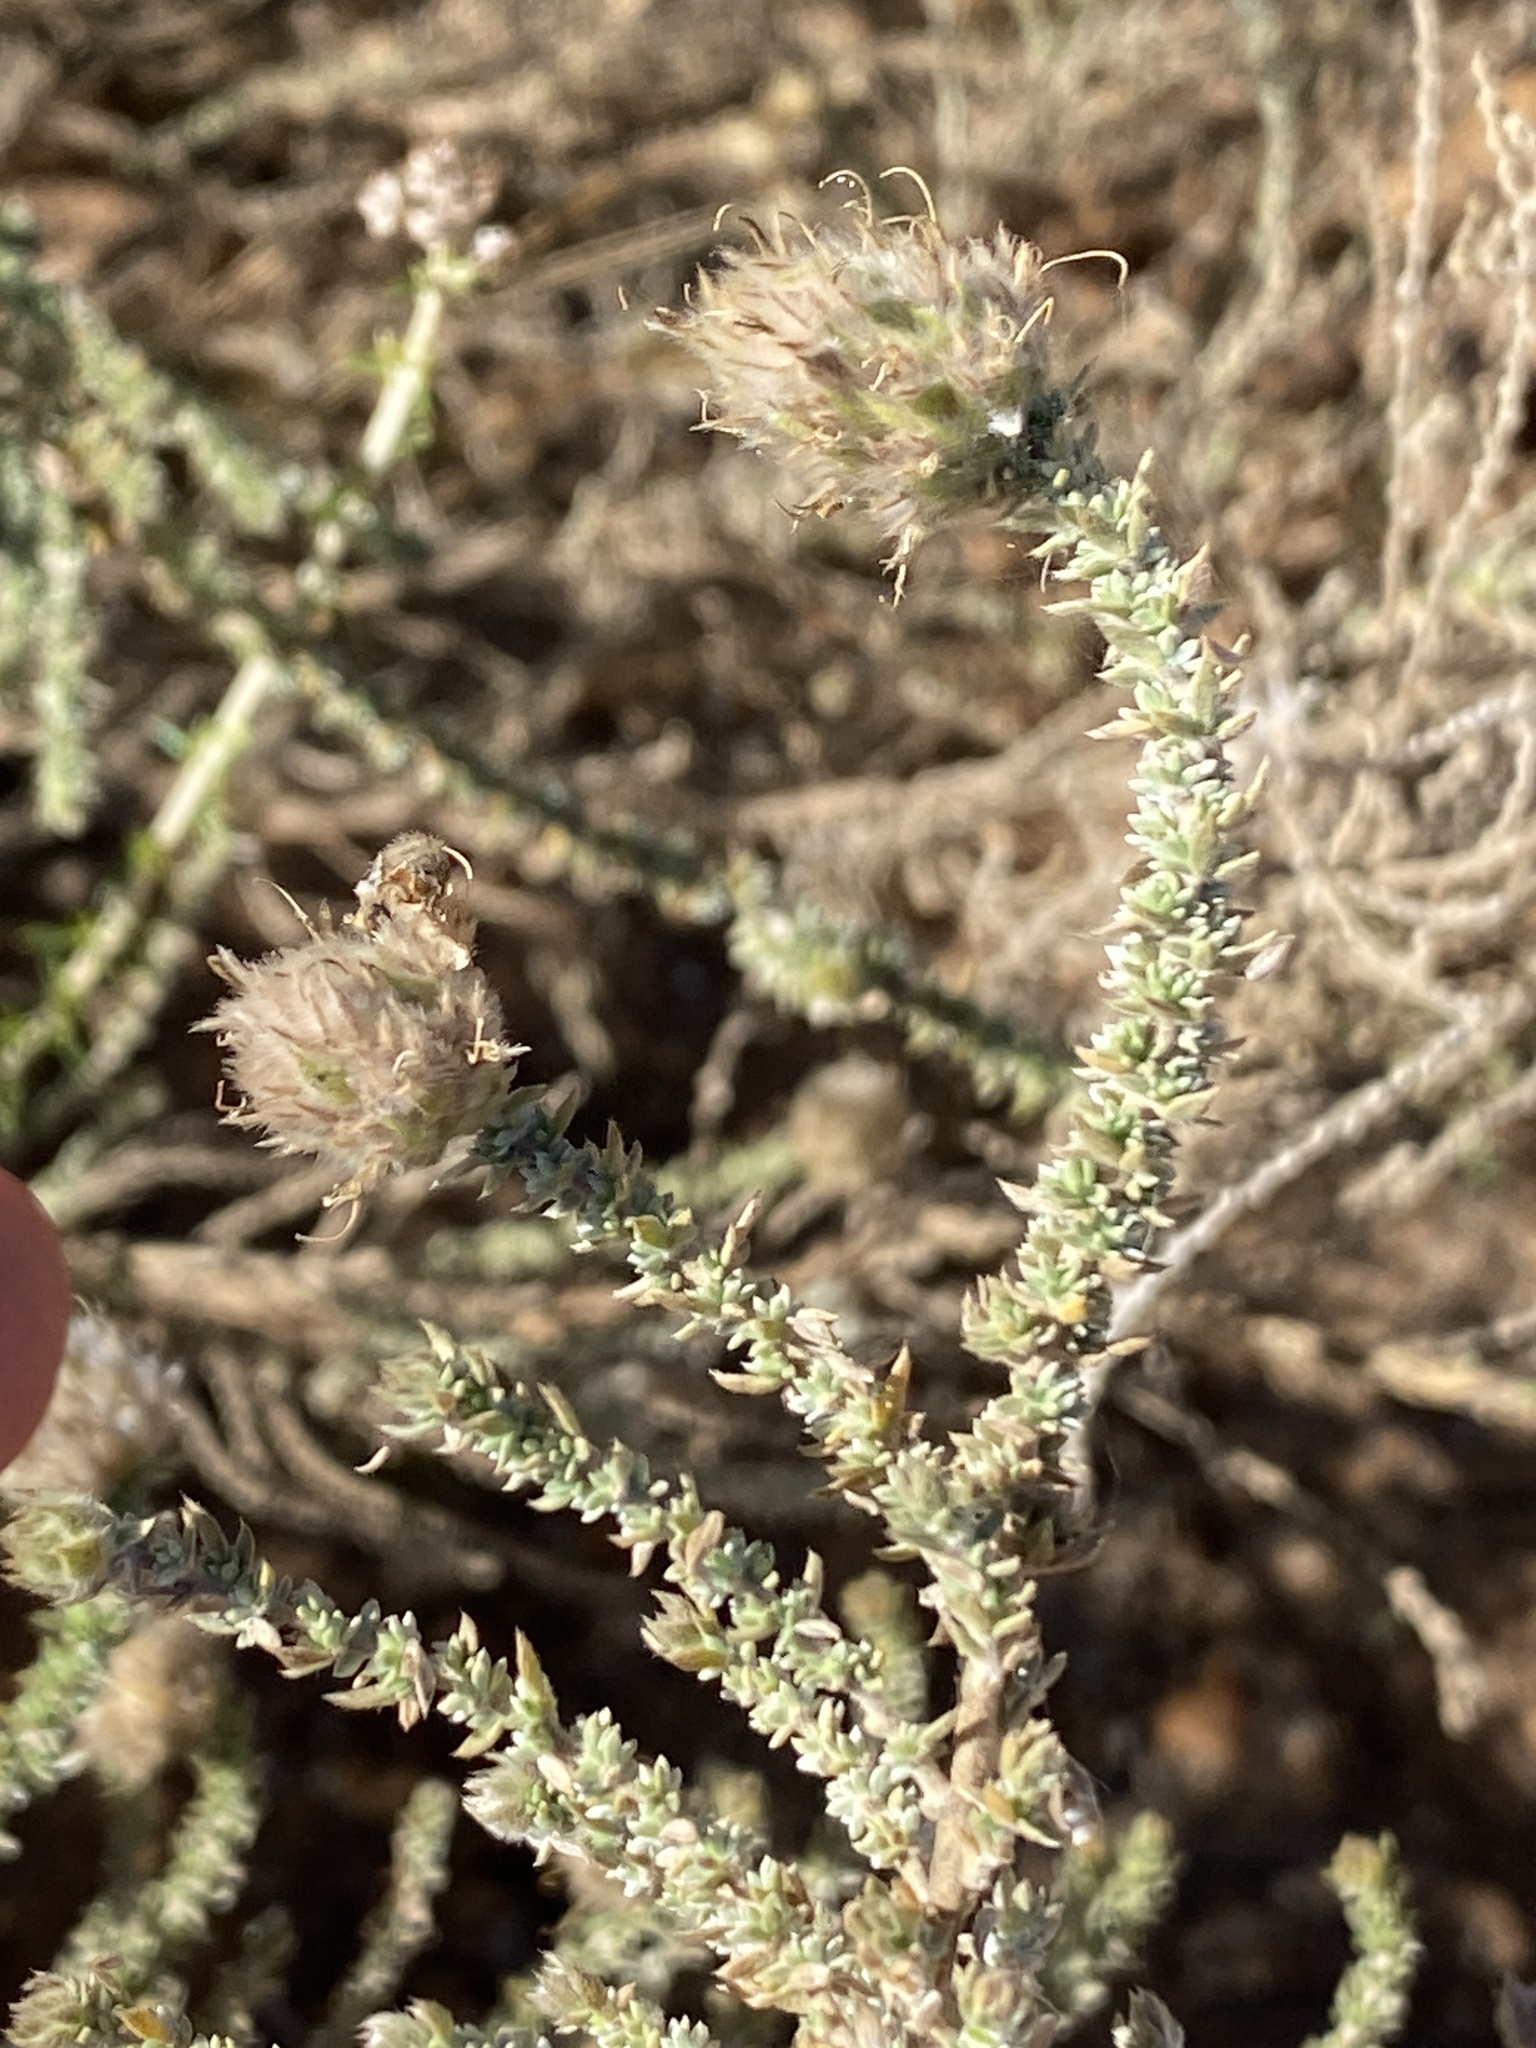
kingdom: Plantae
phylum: Tracheophyta
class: Magnoliopsida
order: Fabales
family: Fabaceae
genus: Aspalathus
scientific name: Aspalathus quinquefolia
